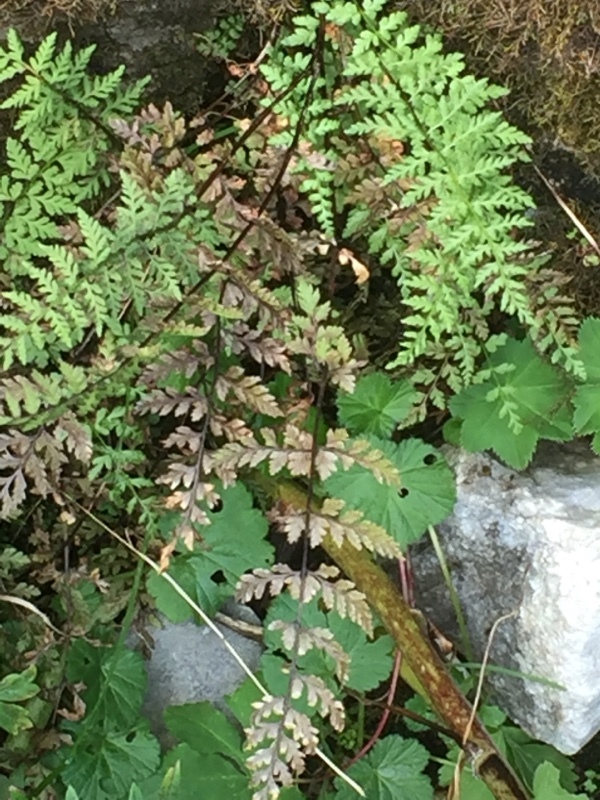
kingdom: Plantae
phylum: Tracheophyta
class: Polypodiopsida
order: Polypodiales
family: Cystopteridaceae
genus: Cystopteris
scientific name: Cystopteris fragilis
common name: Brittle bladder fern
